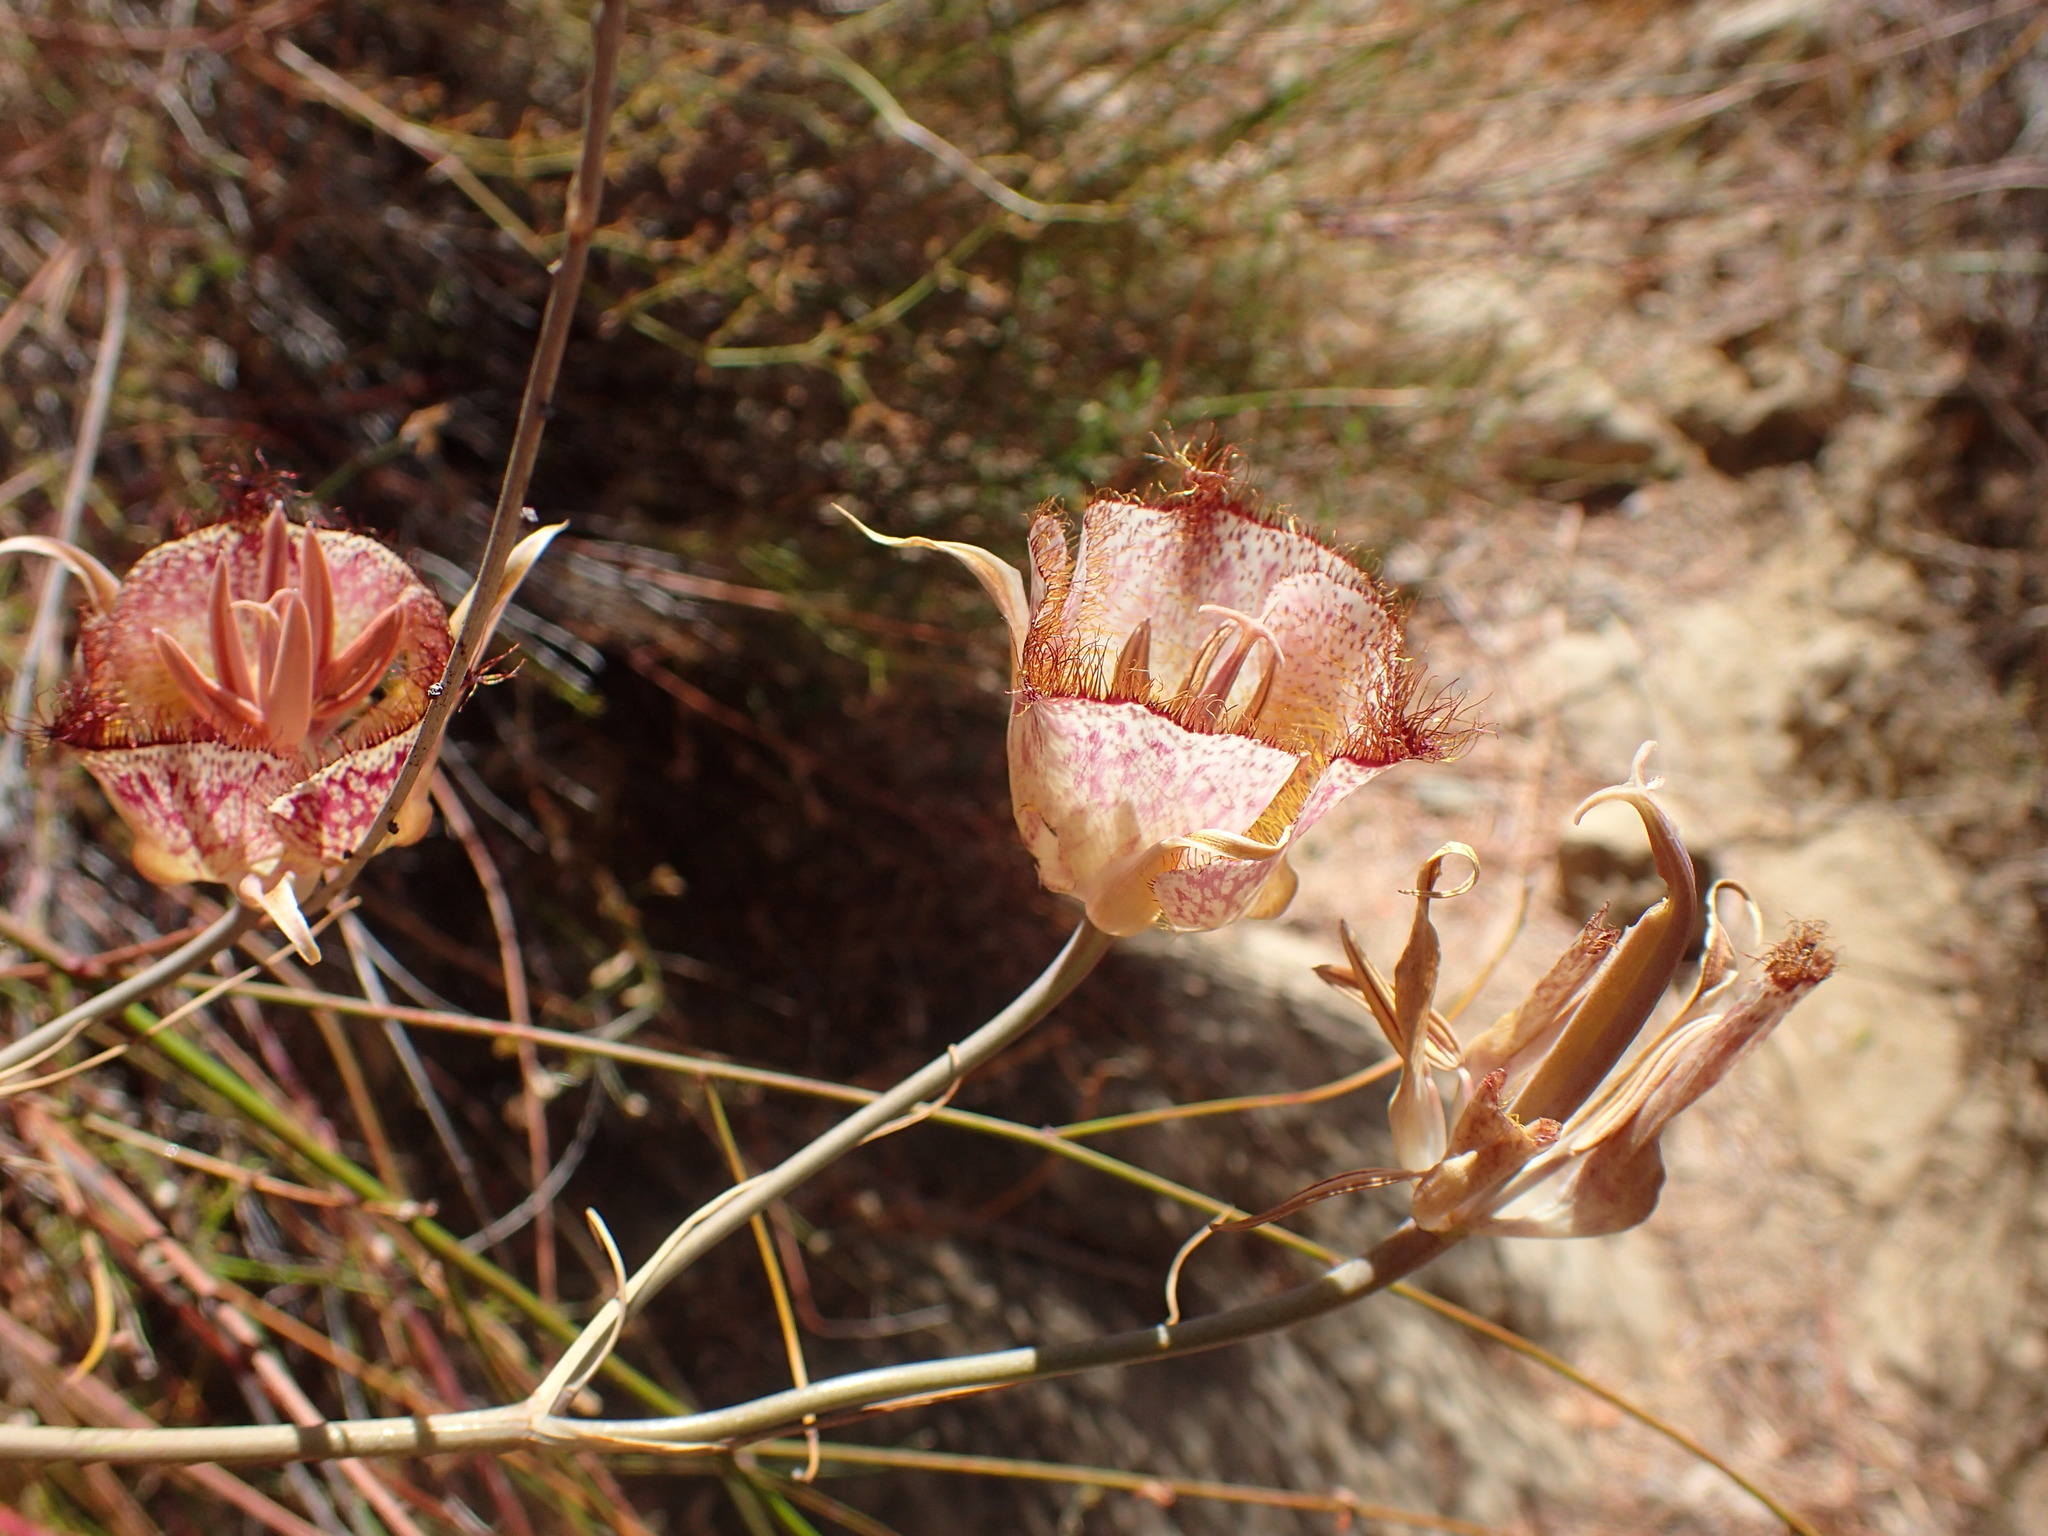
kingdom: Plantae
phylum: Tracheophyta
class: Liliopsida
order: Liliales
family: Liliaceae
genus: Calochortus
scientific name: Calochortus fimbriatus
